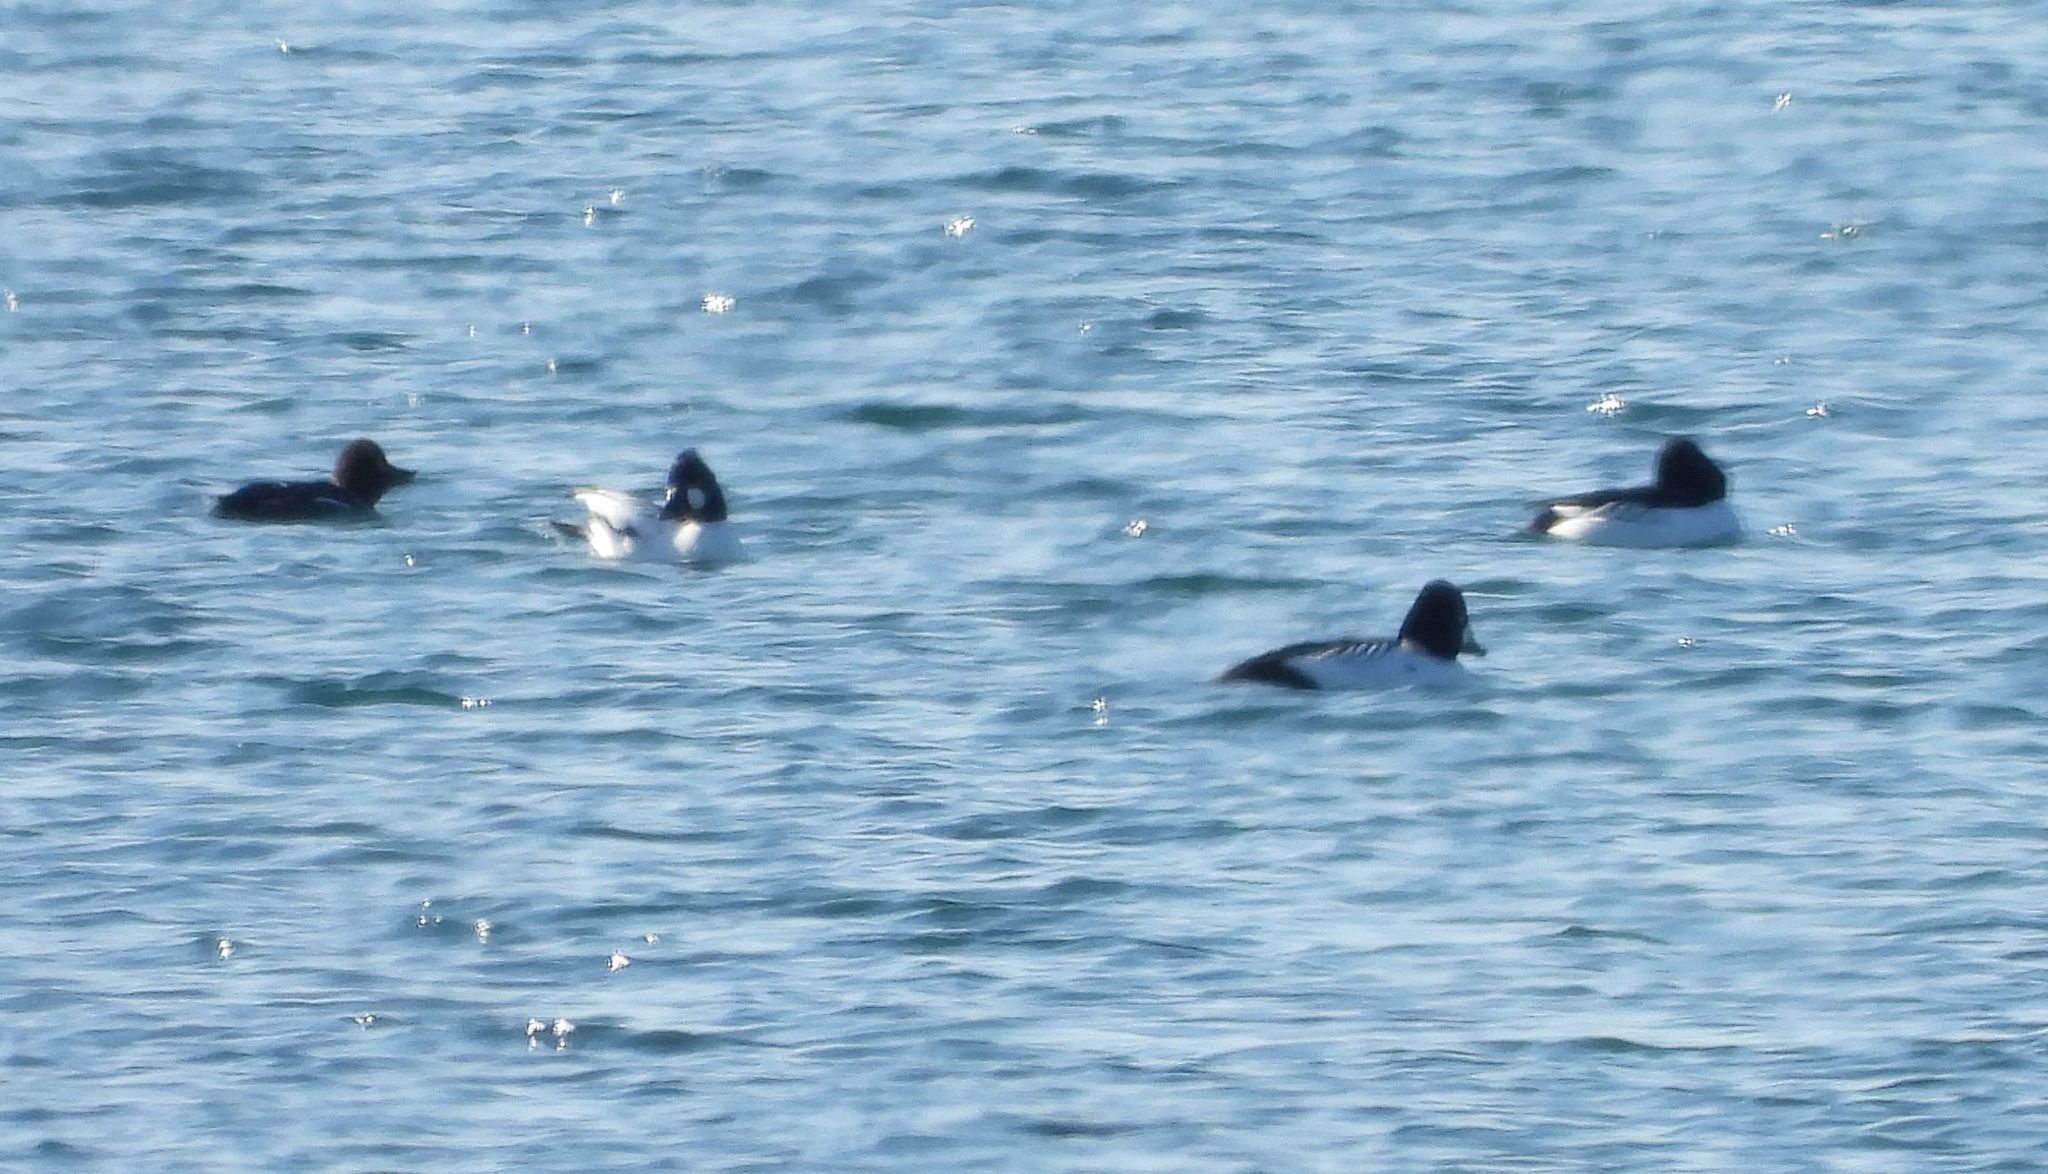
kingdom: Animalia
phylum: Chordata
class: Aves
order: Anseriformes
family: Anatidae
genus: Bucephala
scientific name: Bucephala clangula
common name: Common goldeneye
